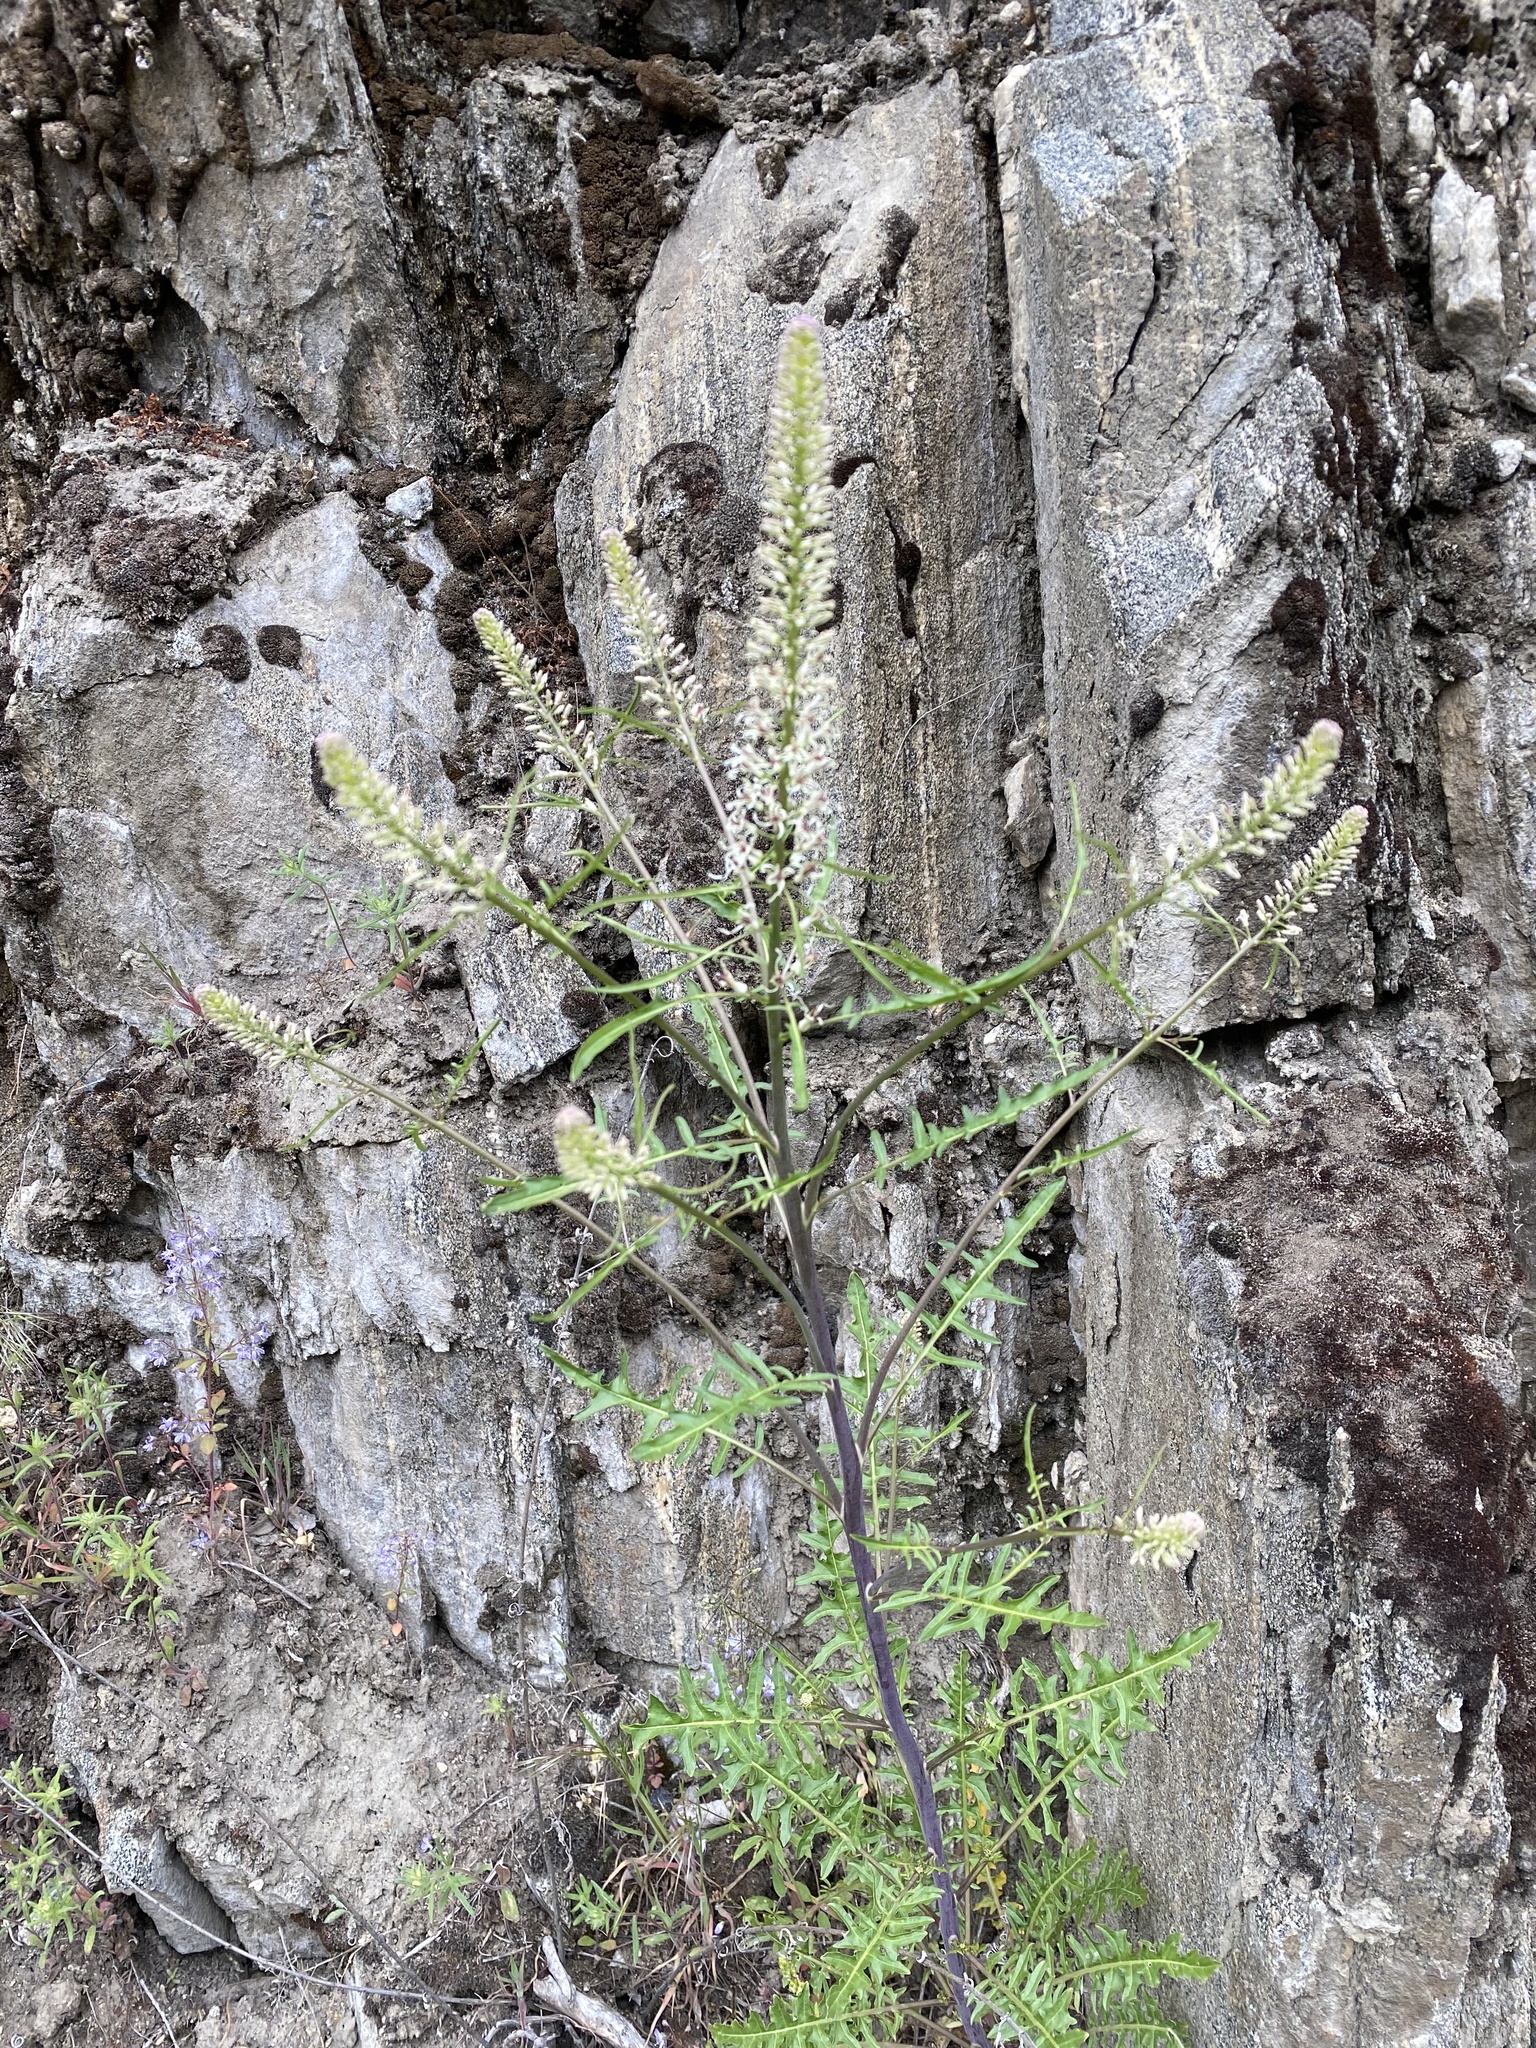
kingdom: Plantae
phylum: Tracheophyta
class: Magnoliopsida
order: Brassicales
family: Brassicaceae
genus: Thelypodium
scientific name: Thelypodium laciniatum
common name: Cut-leaved thelypody
